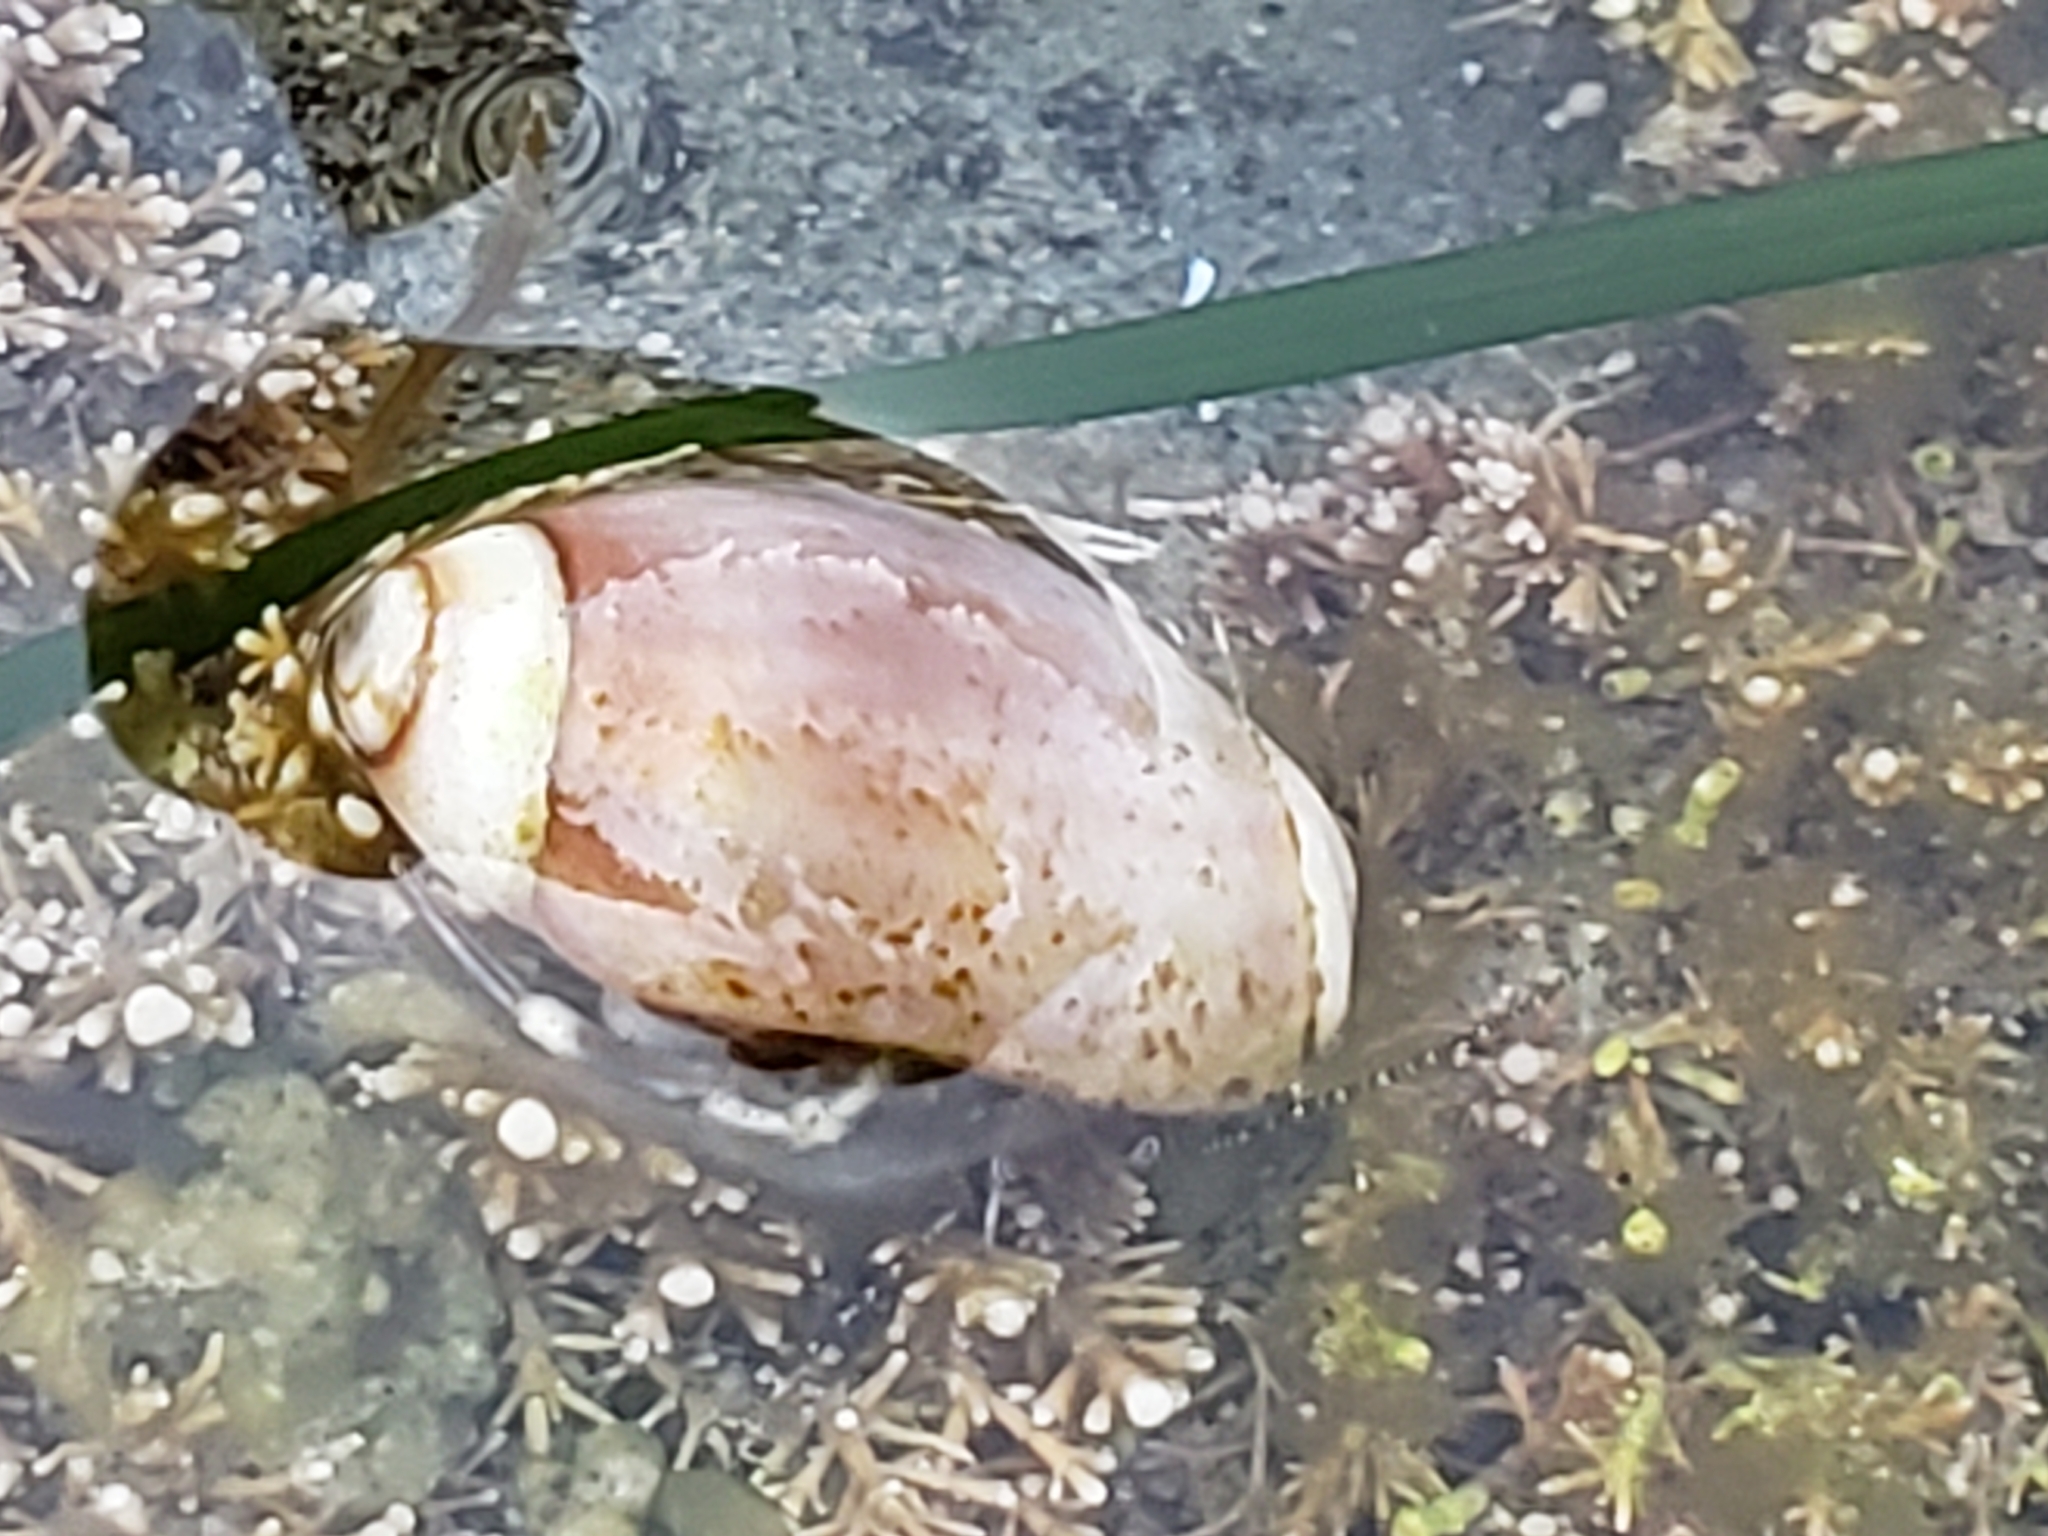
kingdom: Animalia
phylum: Mollusca
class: Gastropoda
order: Neogastropoda
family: Olividae
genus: Callianax
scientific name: Callianax biplicata
